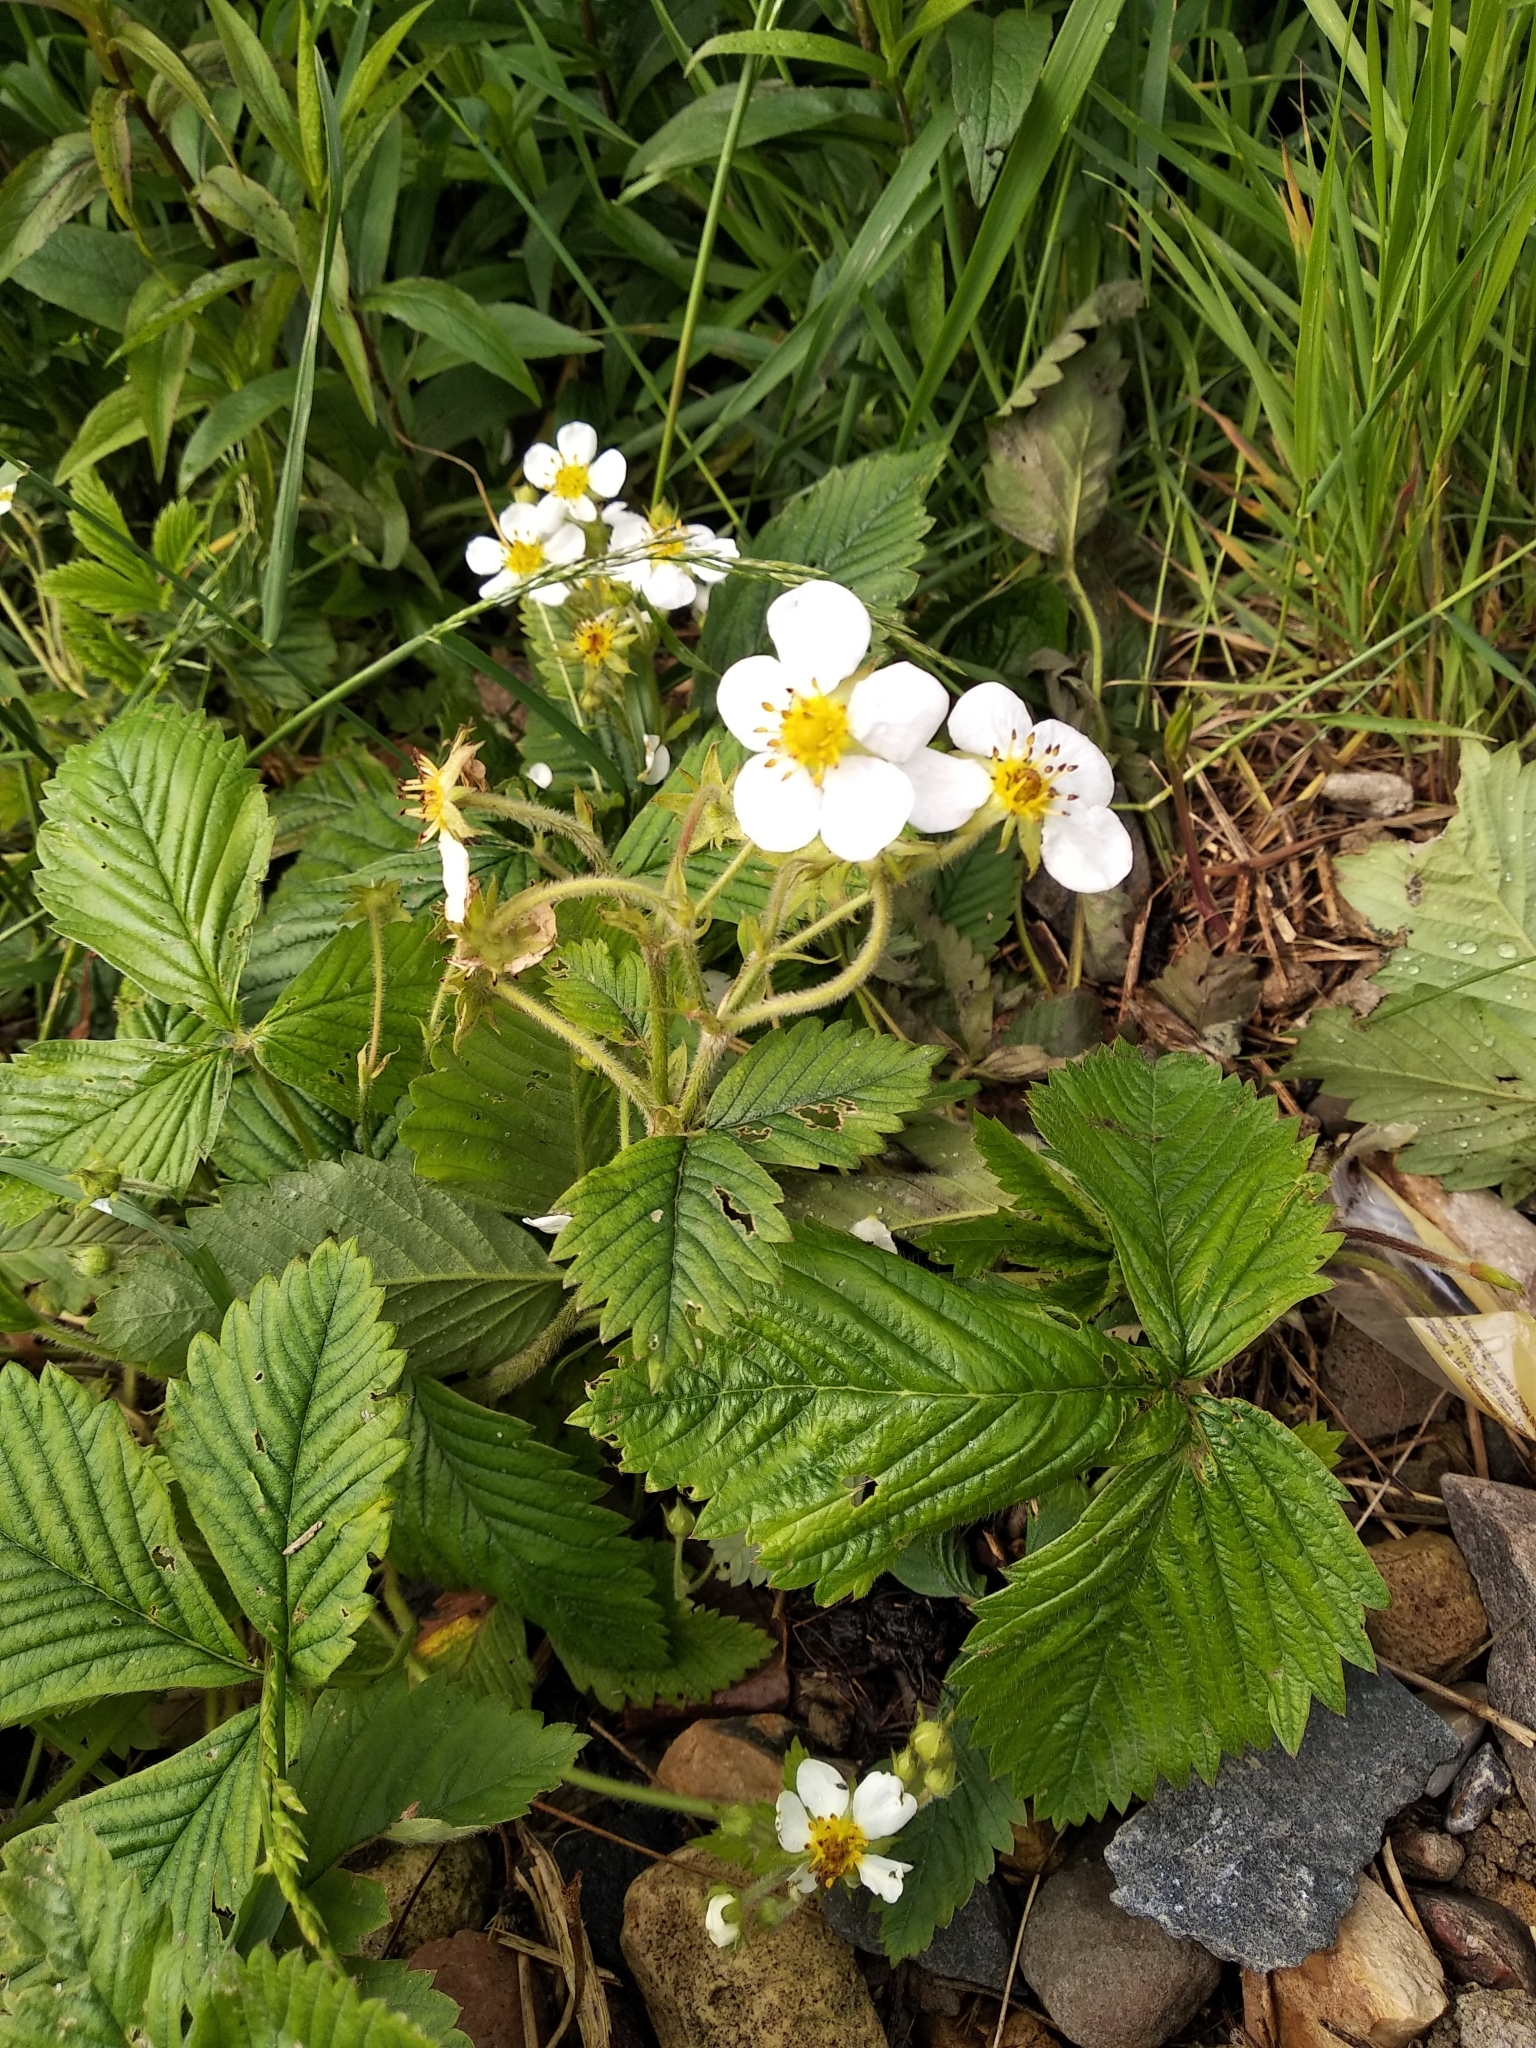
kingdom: Plantae
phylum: Tracheophyta
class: Magnoliopsida
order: Rosales
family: Rosaceae
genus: Fragaria
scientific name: Fragaria moschata
